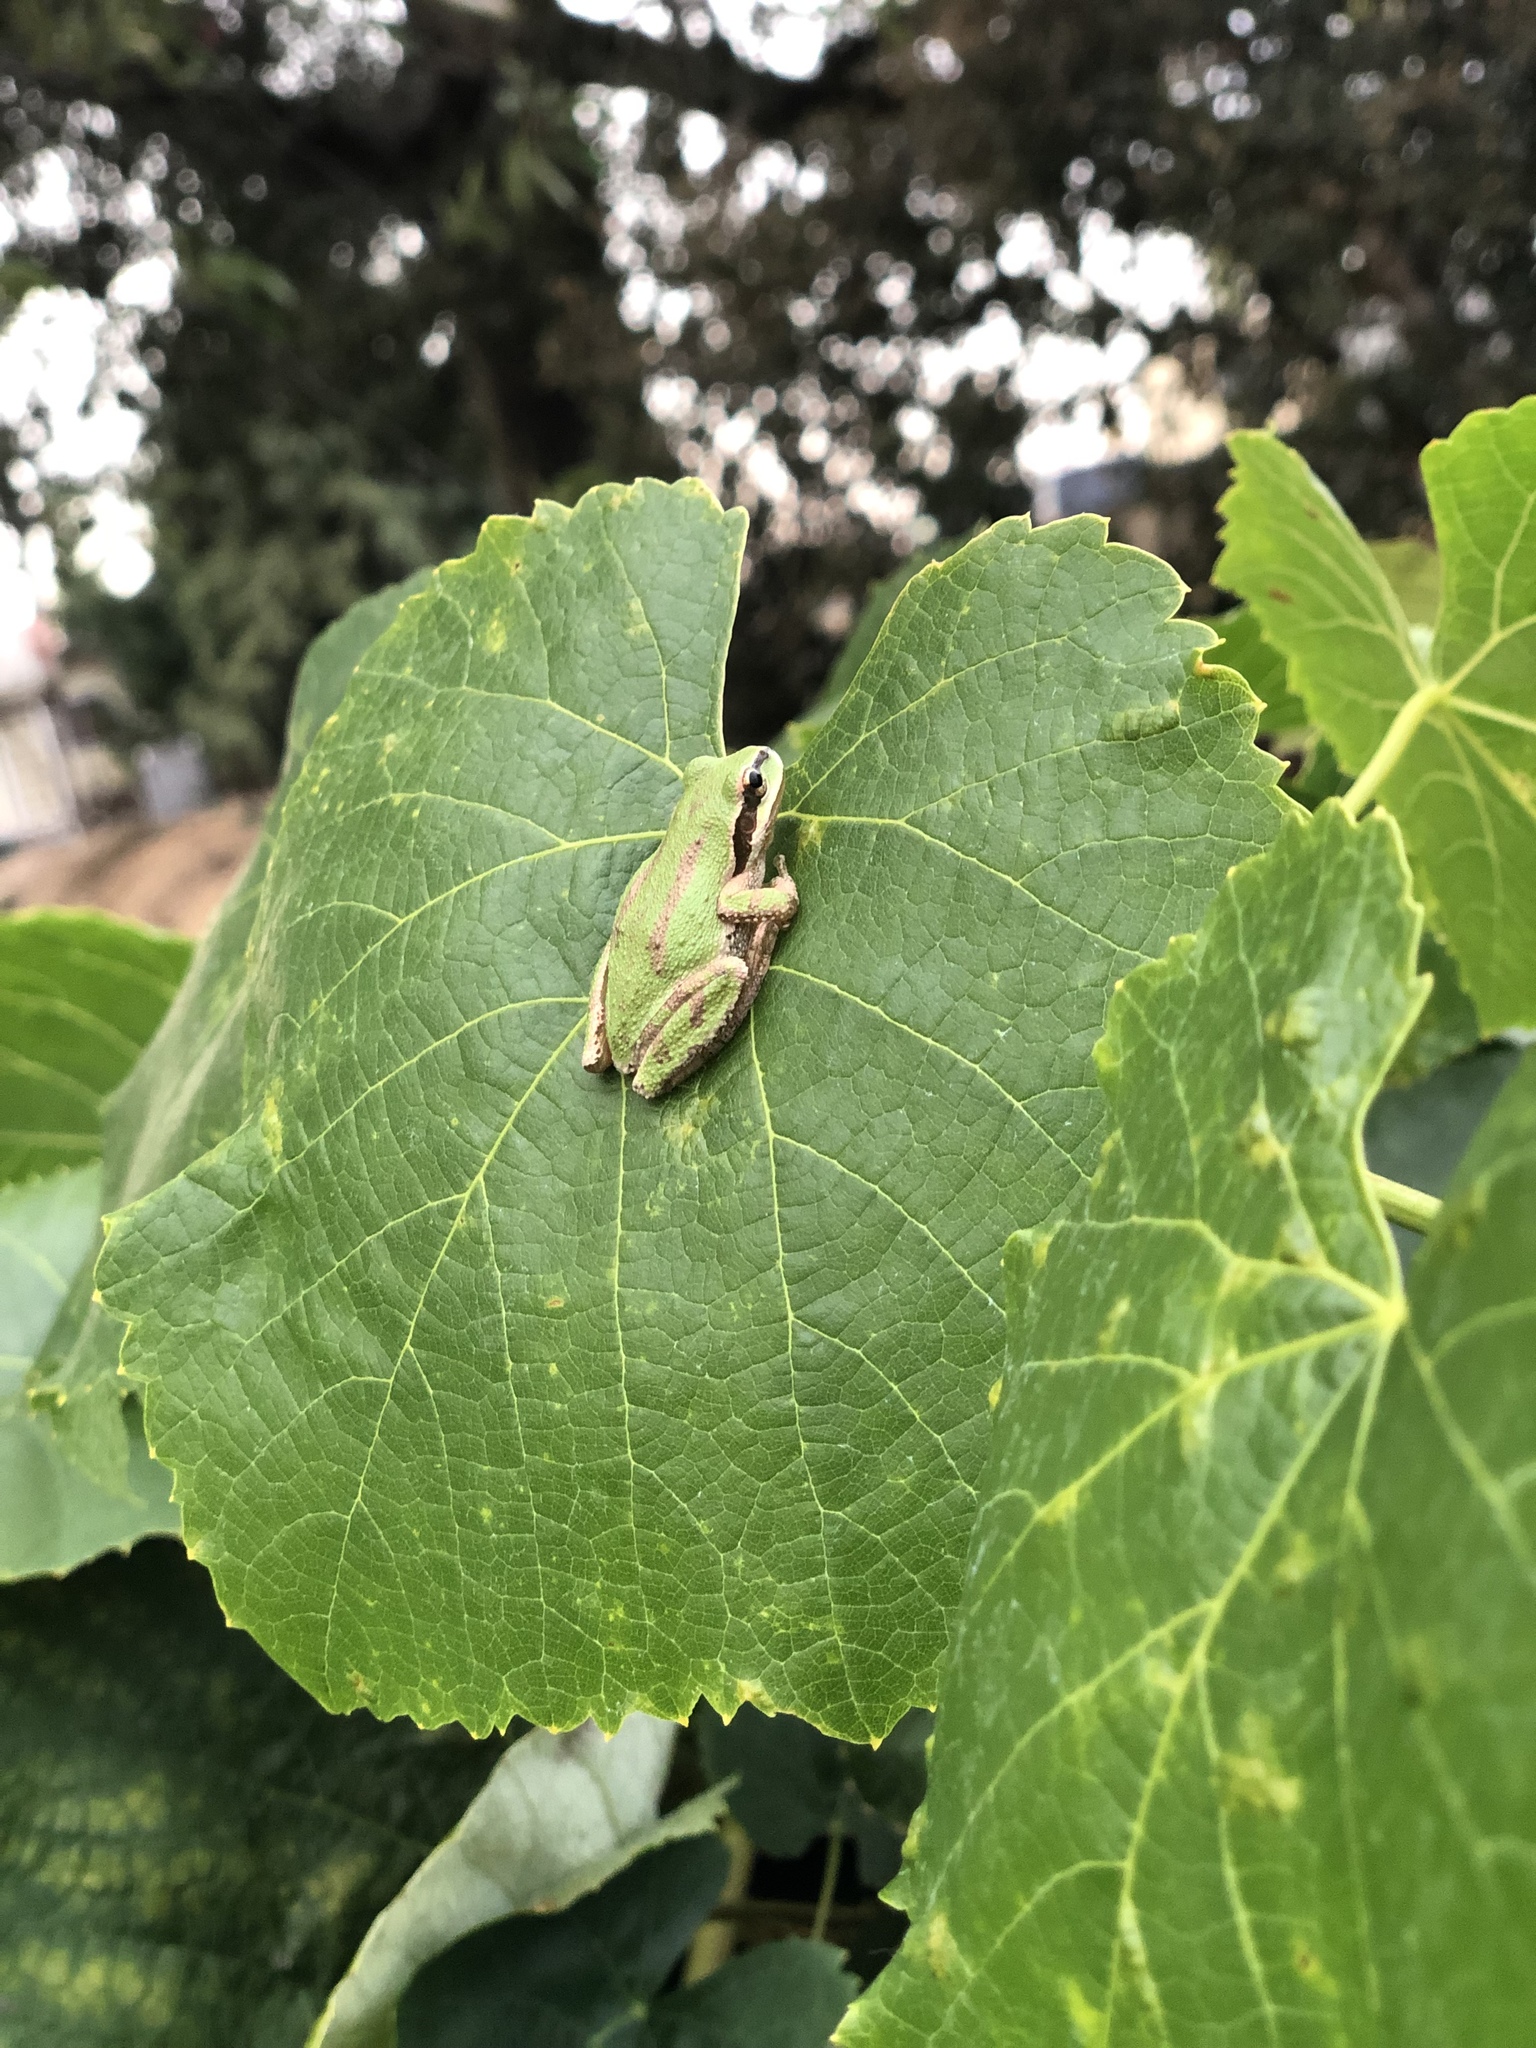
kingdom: Animalia
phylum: Chordata
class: Amphibia
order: Anura
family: Hylidae
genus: Pseudacris
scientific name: Pseudacris regilla
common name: Pacific chorus frog
